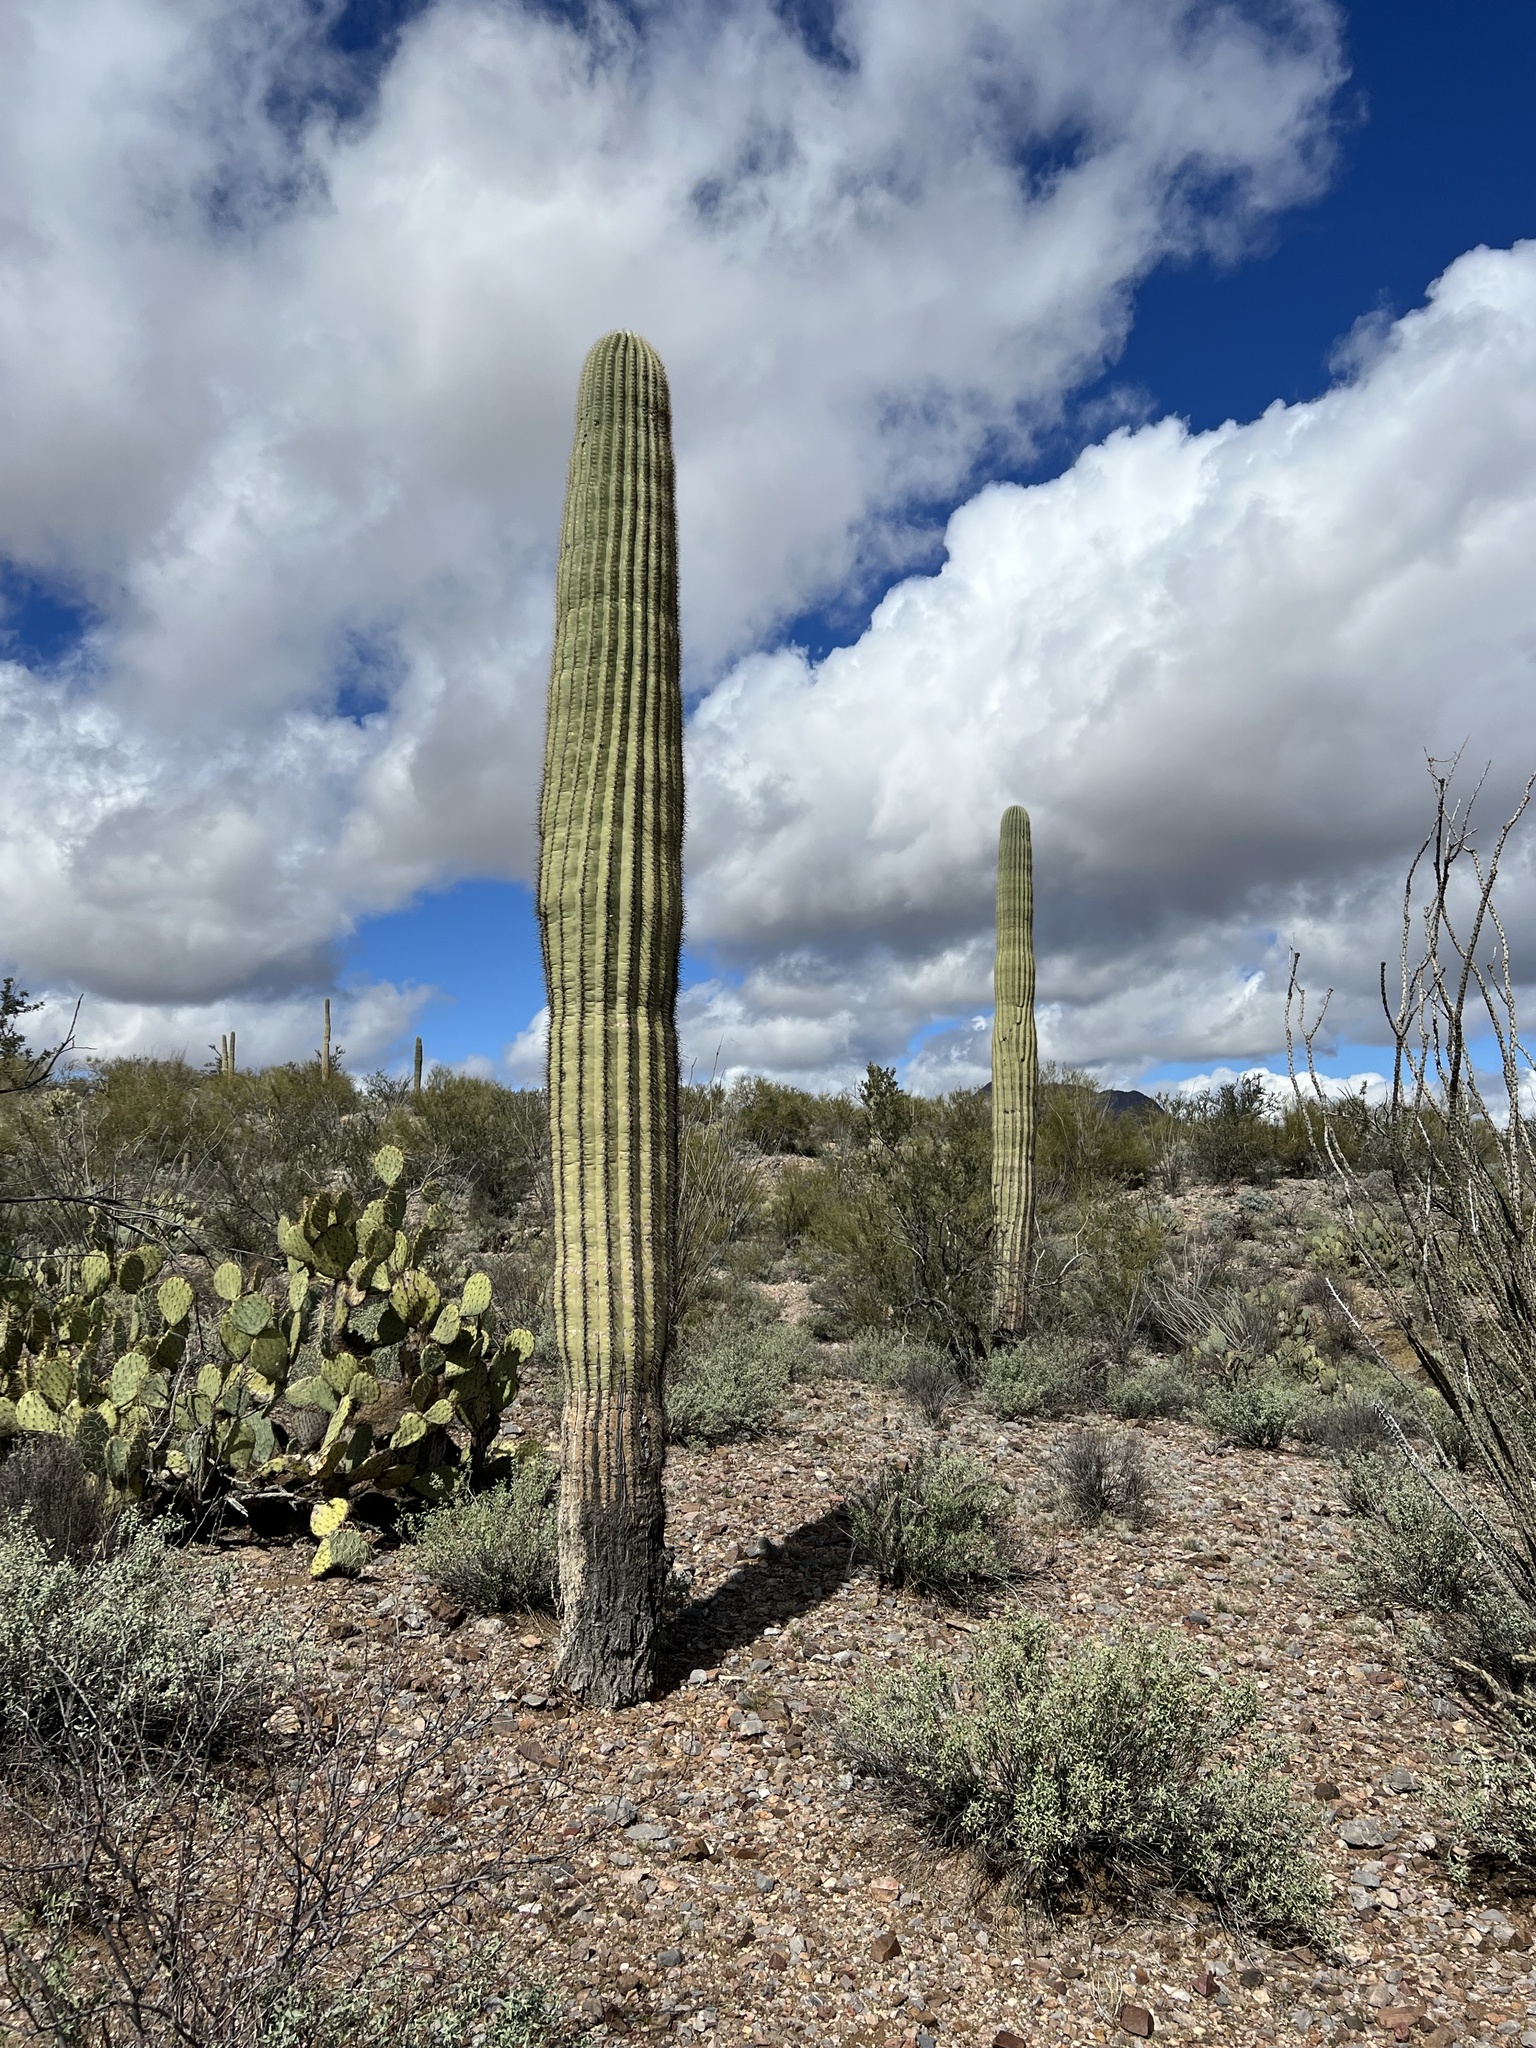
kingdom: Plantae
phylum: Tracheophyta
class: Magnoliopsida
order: Caryophyllales
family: Cactaceae
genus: Carnegiea
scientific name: Carnegiea gigantea
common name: Saguaro
